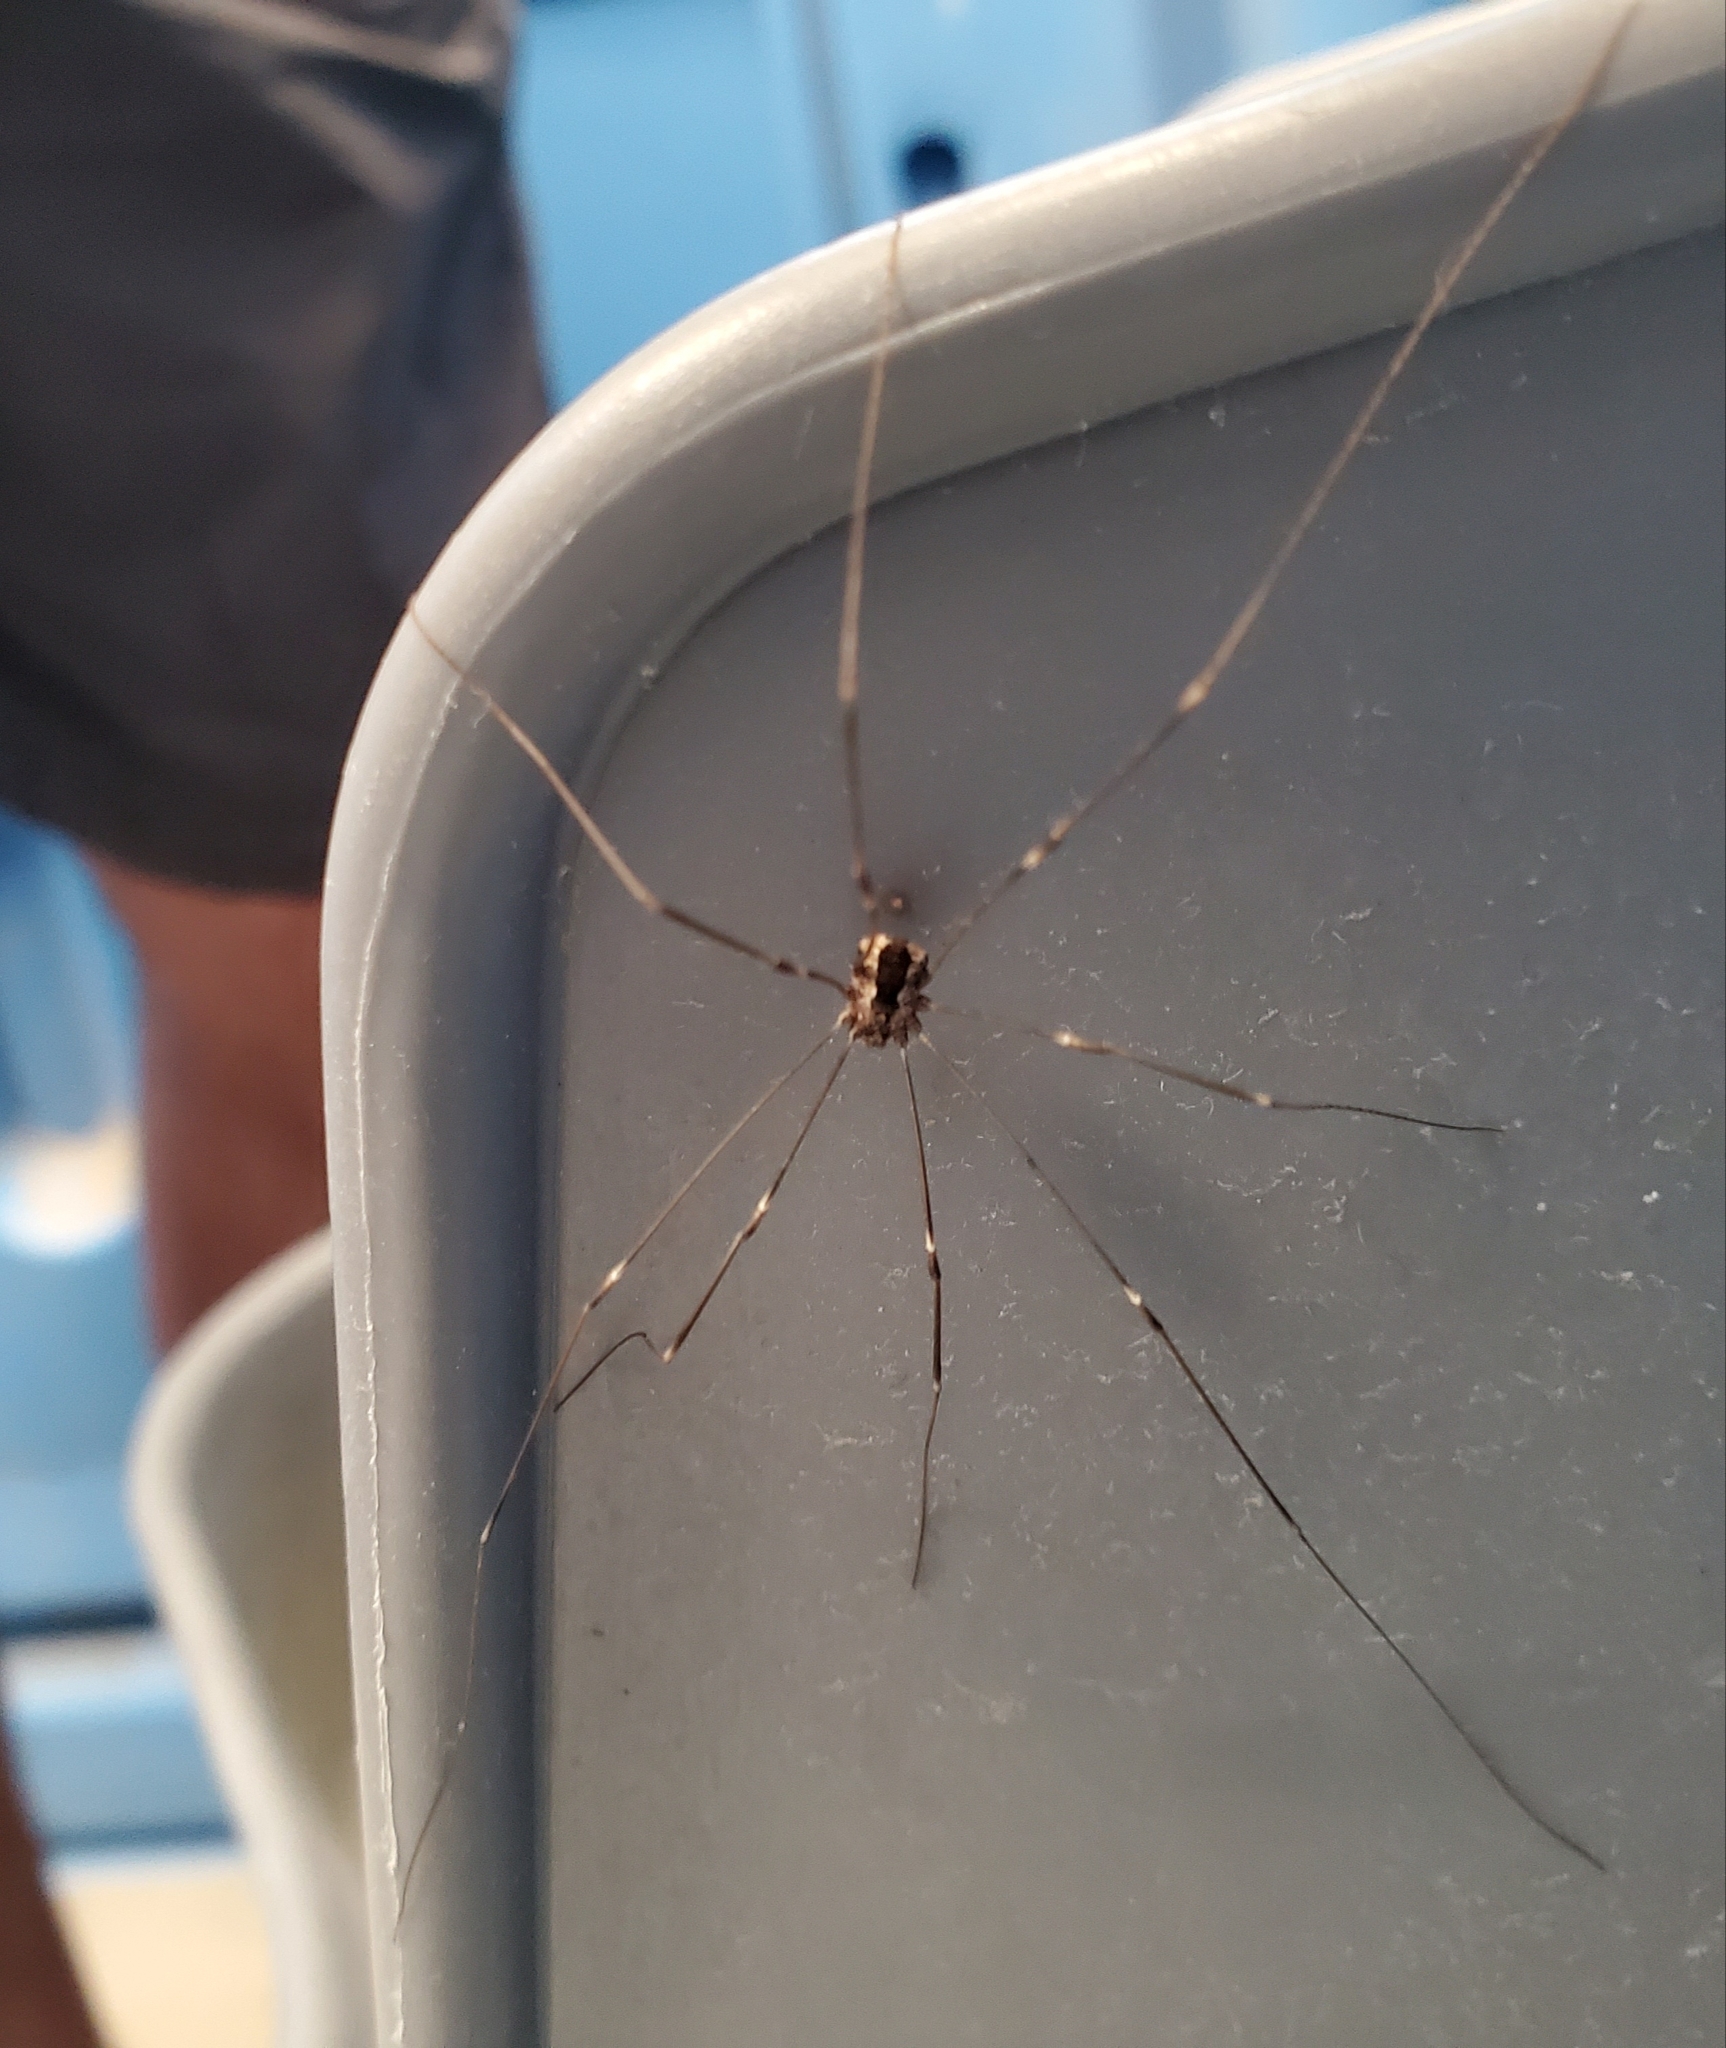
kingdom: Animalia
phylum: Arthropoda
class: Arachnida
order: Opiliones
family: Sclerosomatidae
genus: Leuronychus
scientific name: Leuronychus pacificus
